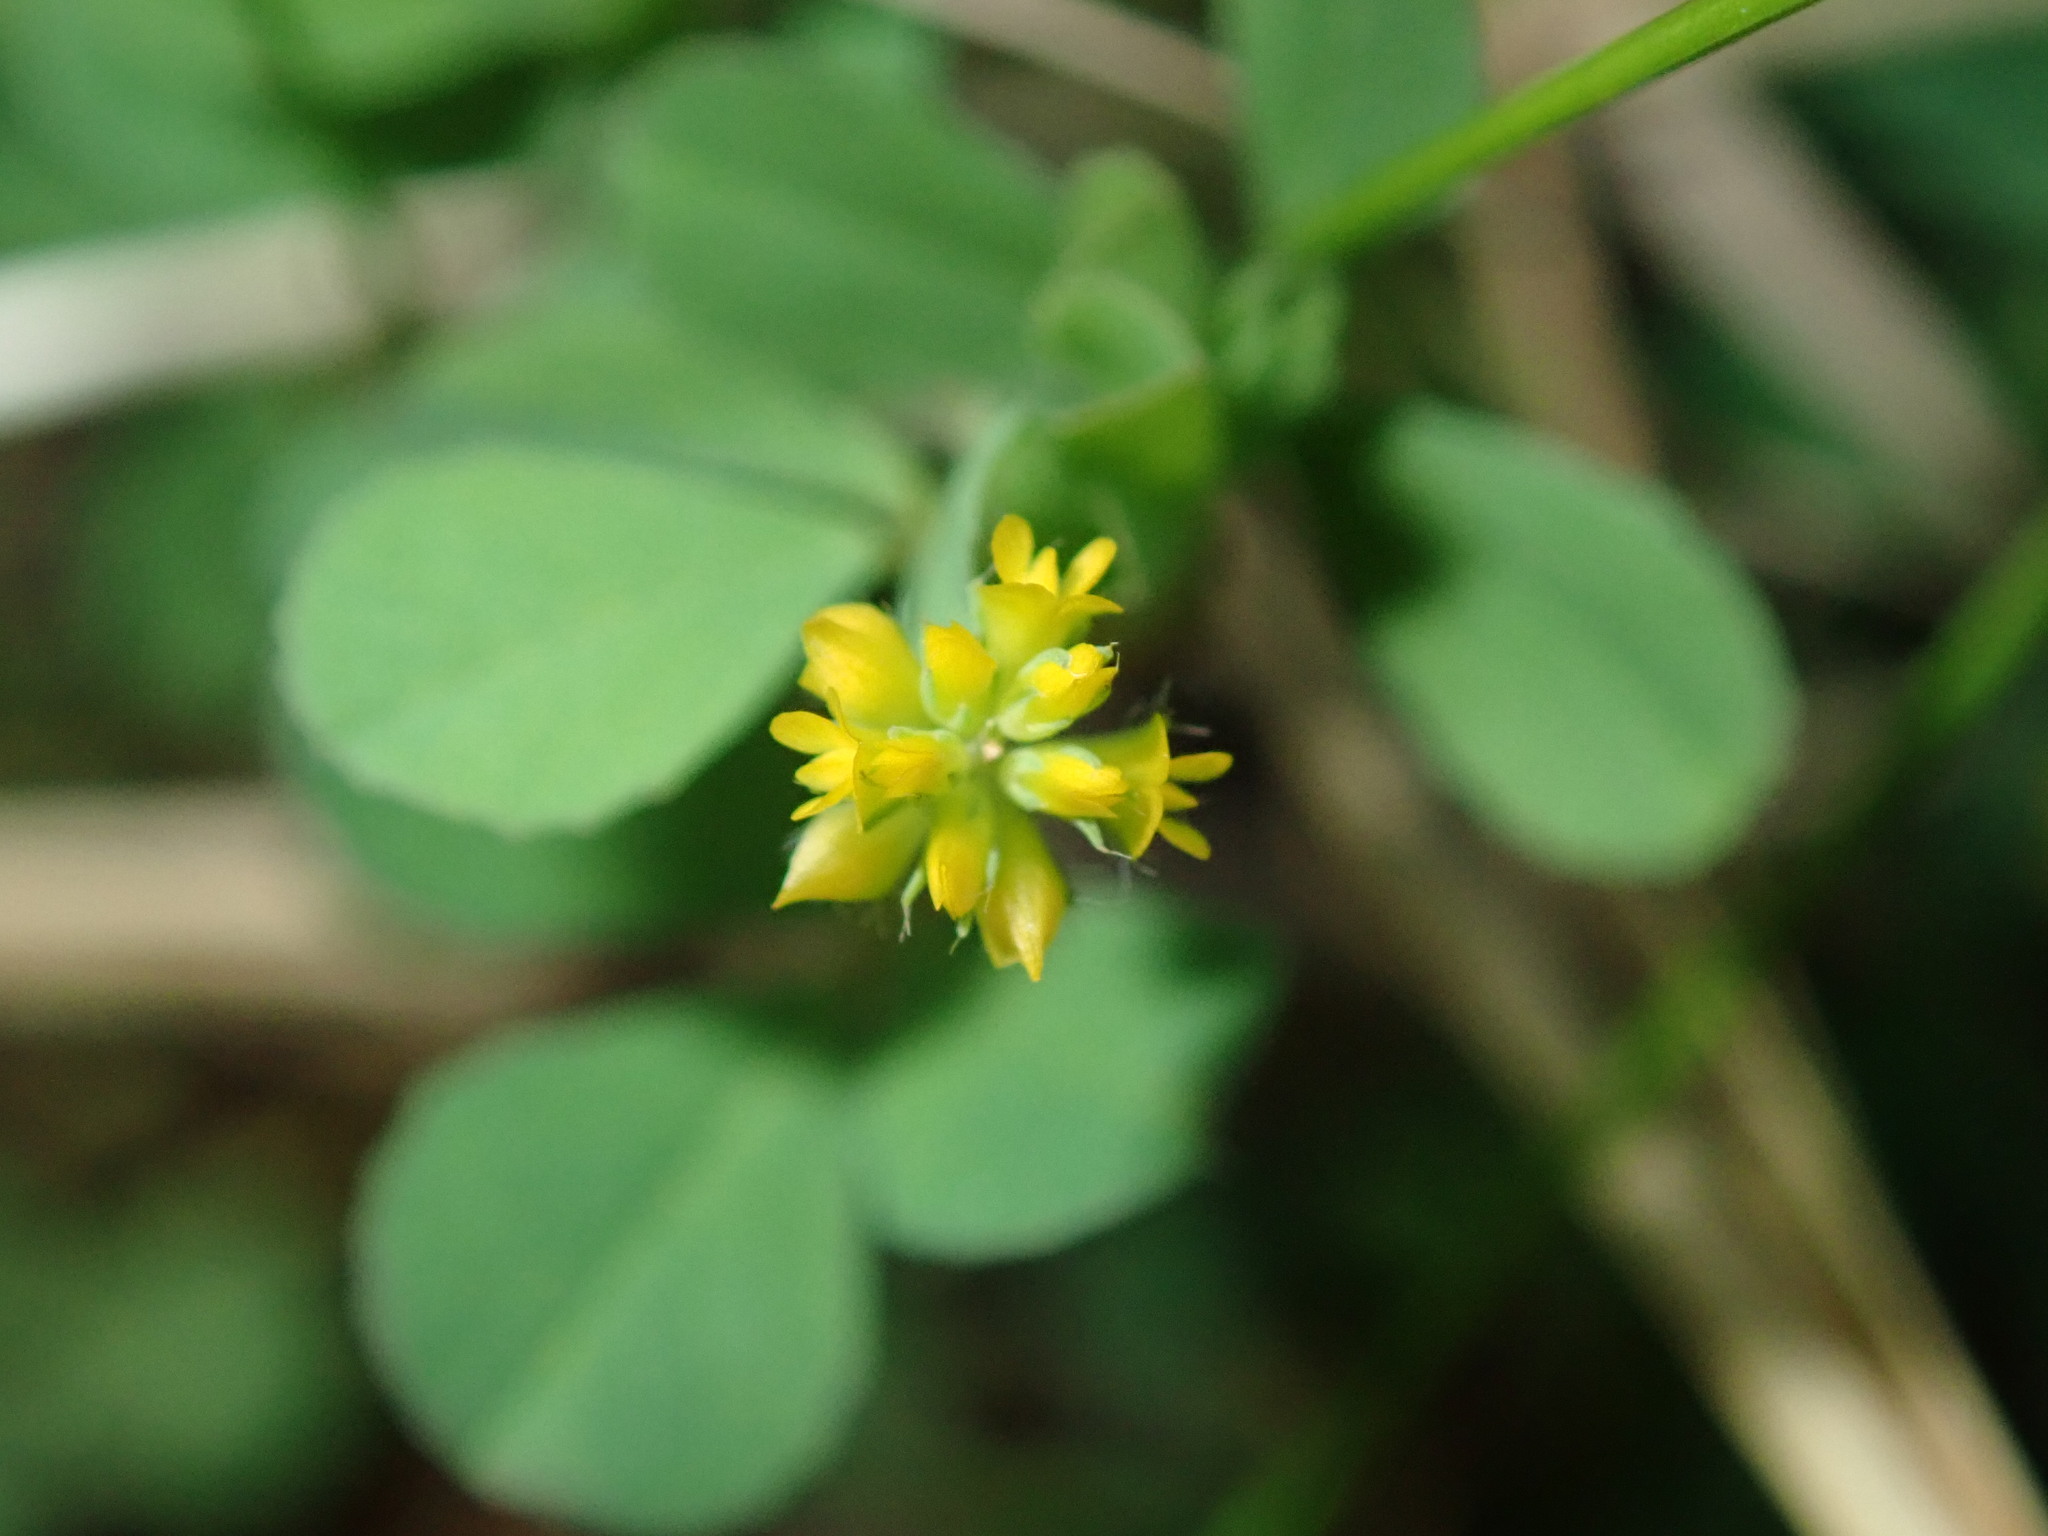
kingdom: Plantae
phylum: Tracheophyta
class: Magnoliopsida
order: Fabales
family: Fabaceae
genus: Trifolium
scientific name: Trifolium dubium
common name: Suckling clover
